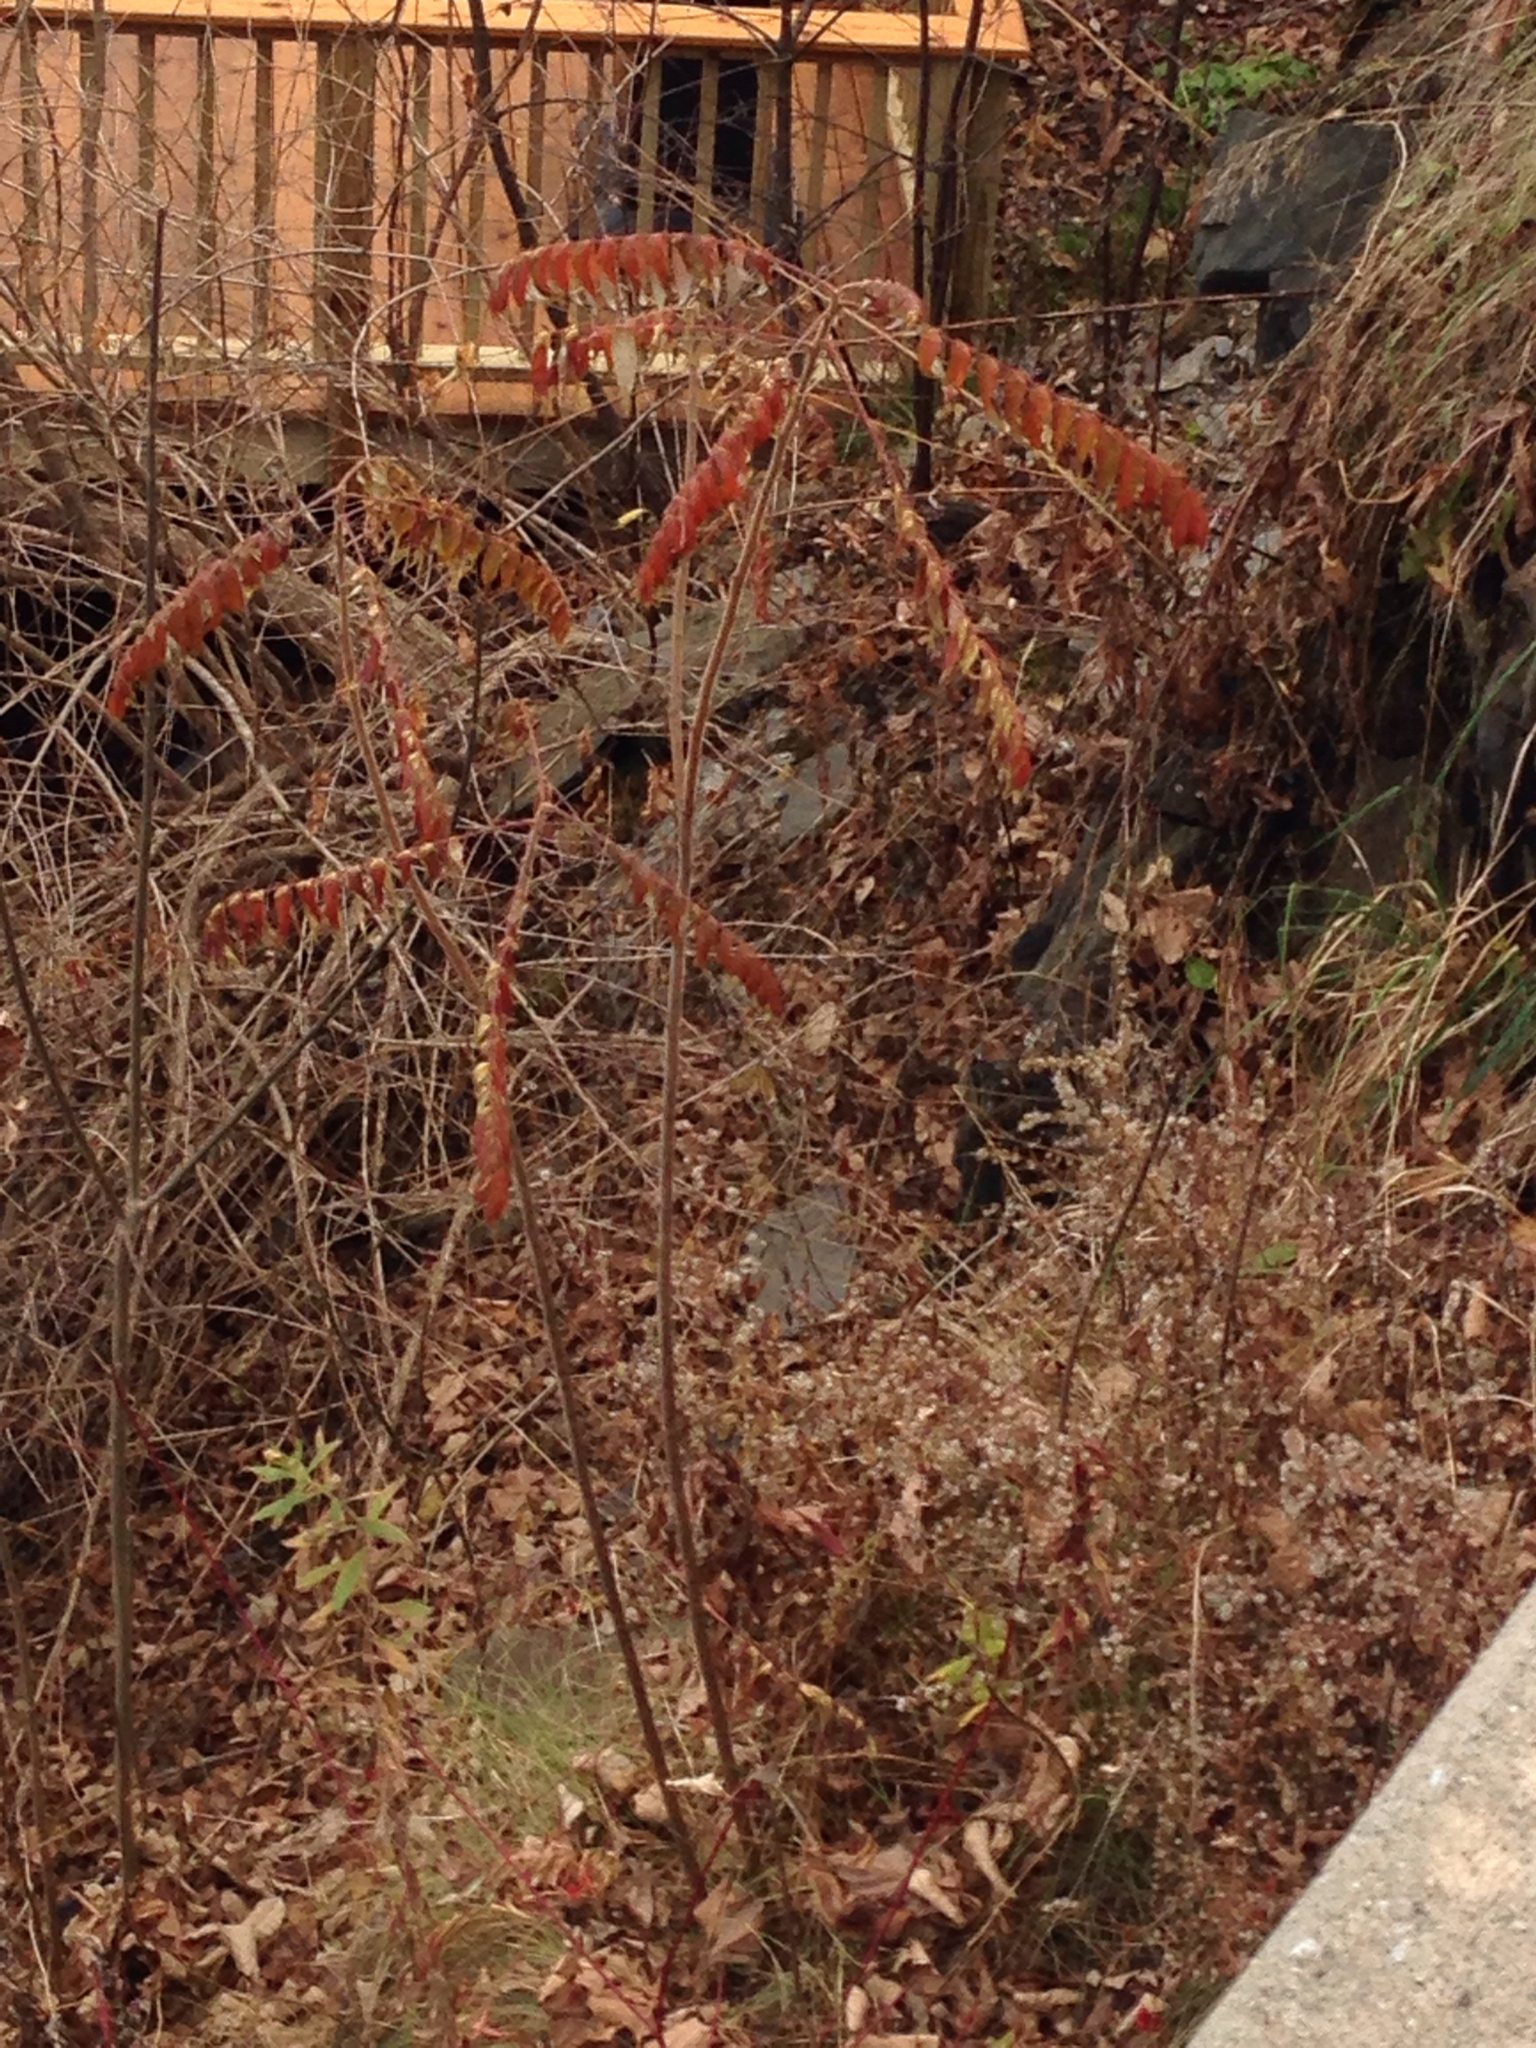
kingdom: Plantae
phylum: Tracheophyta
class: Magnoliopsida
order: Sapindales
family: Anacardiaceae
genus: Rhus
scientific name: Rhus typhina
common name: Staghorn sumac
